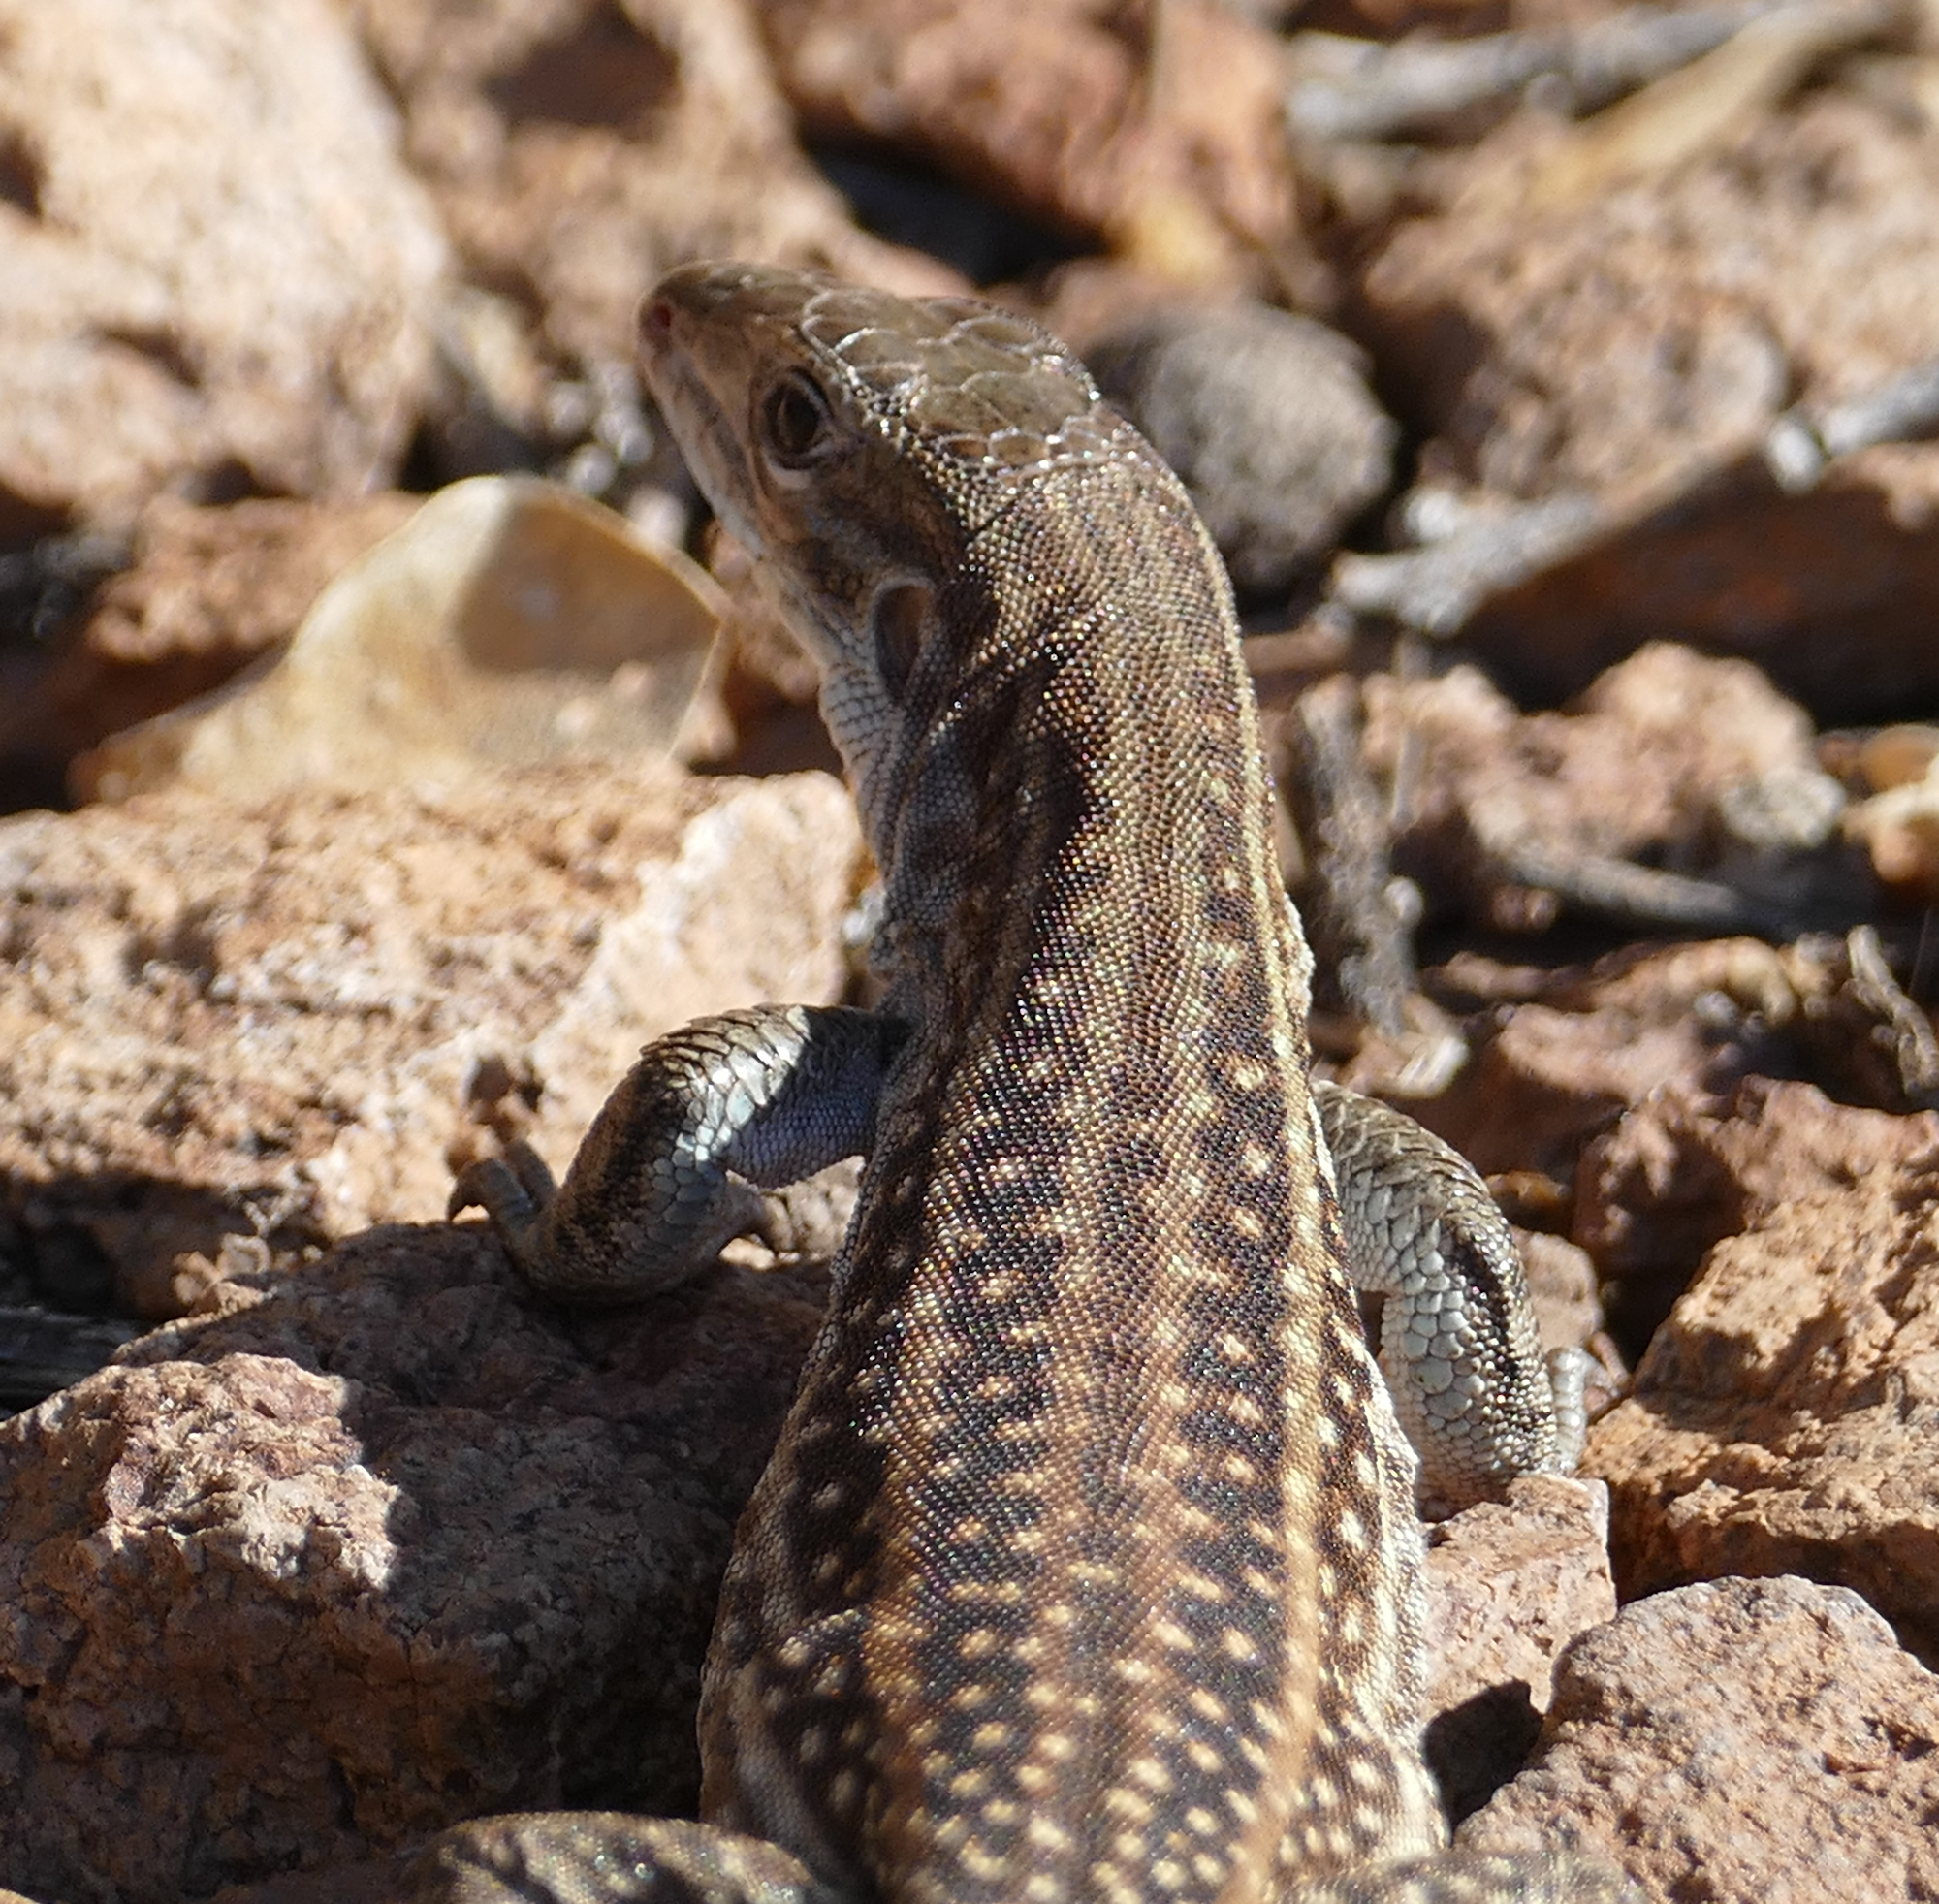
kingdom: Animalia
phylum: Chordata
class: Squamata
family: Teiidae
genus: Aspidoscelis
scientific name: Aspidoscelis exsanguis
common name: Chihuahuan spotted whiptail
